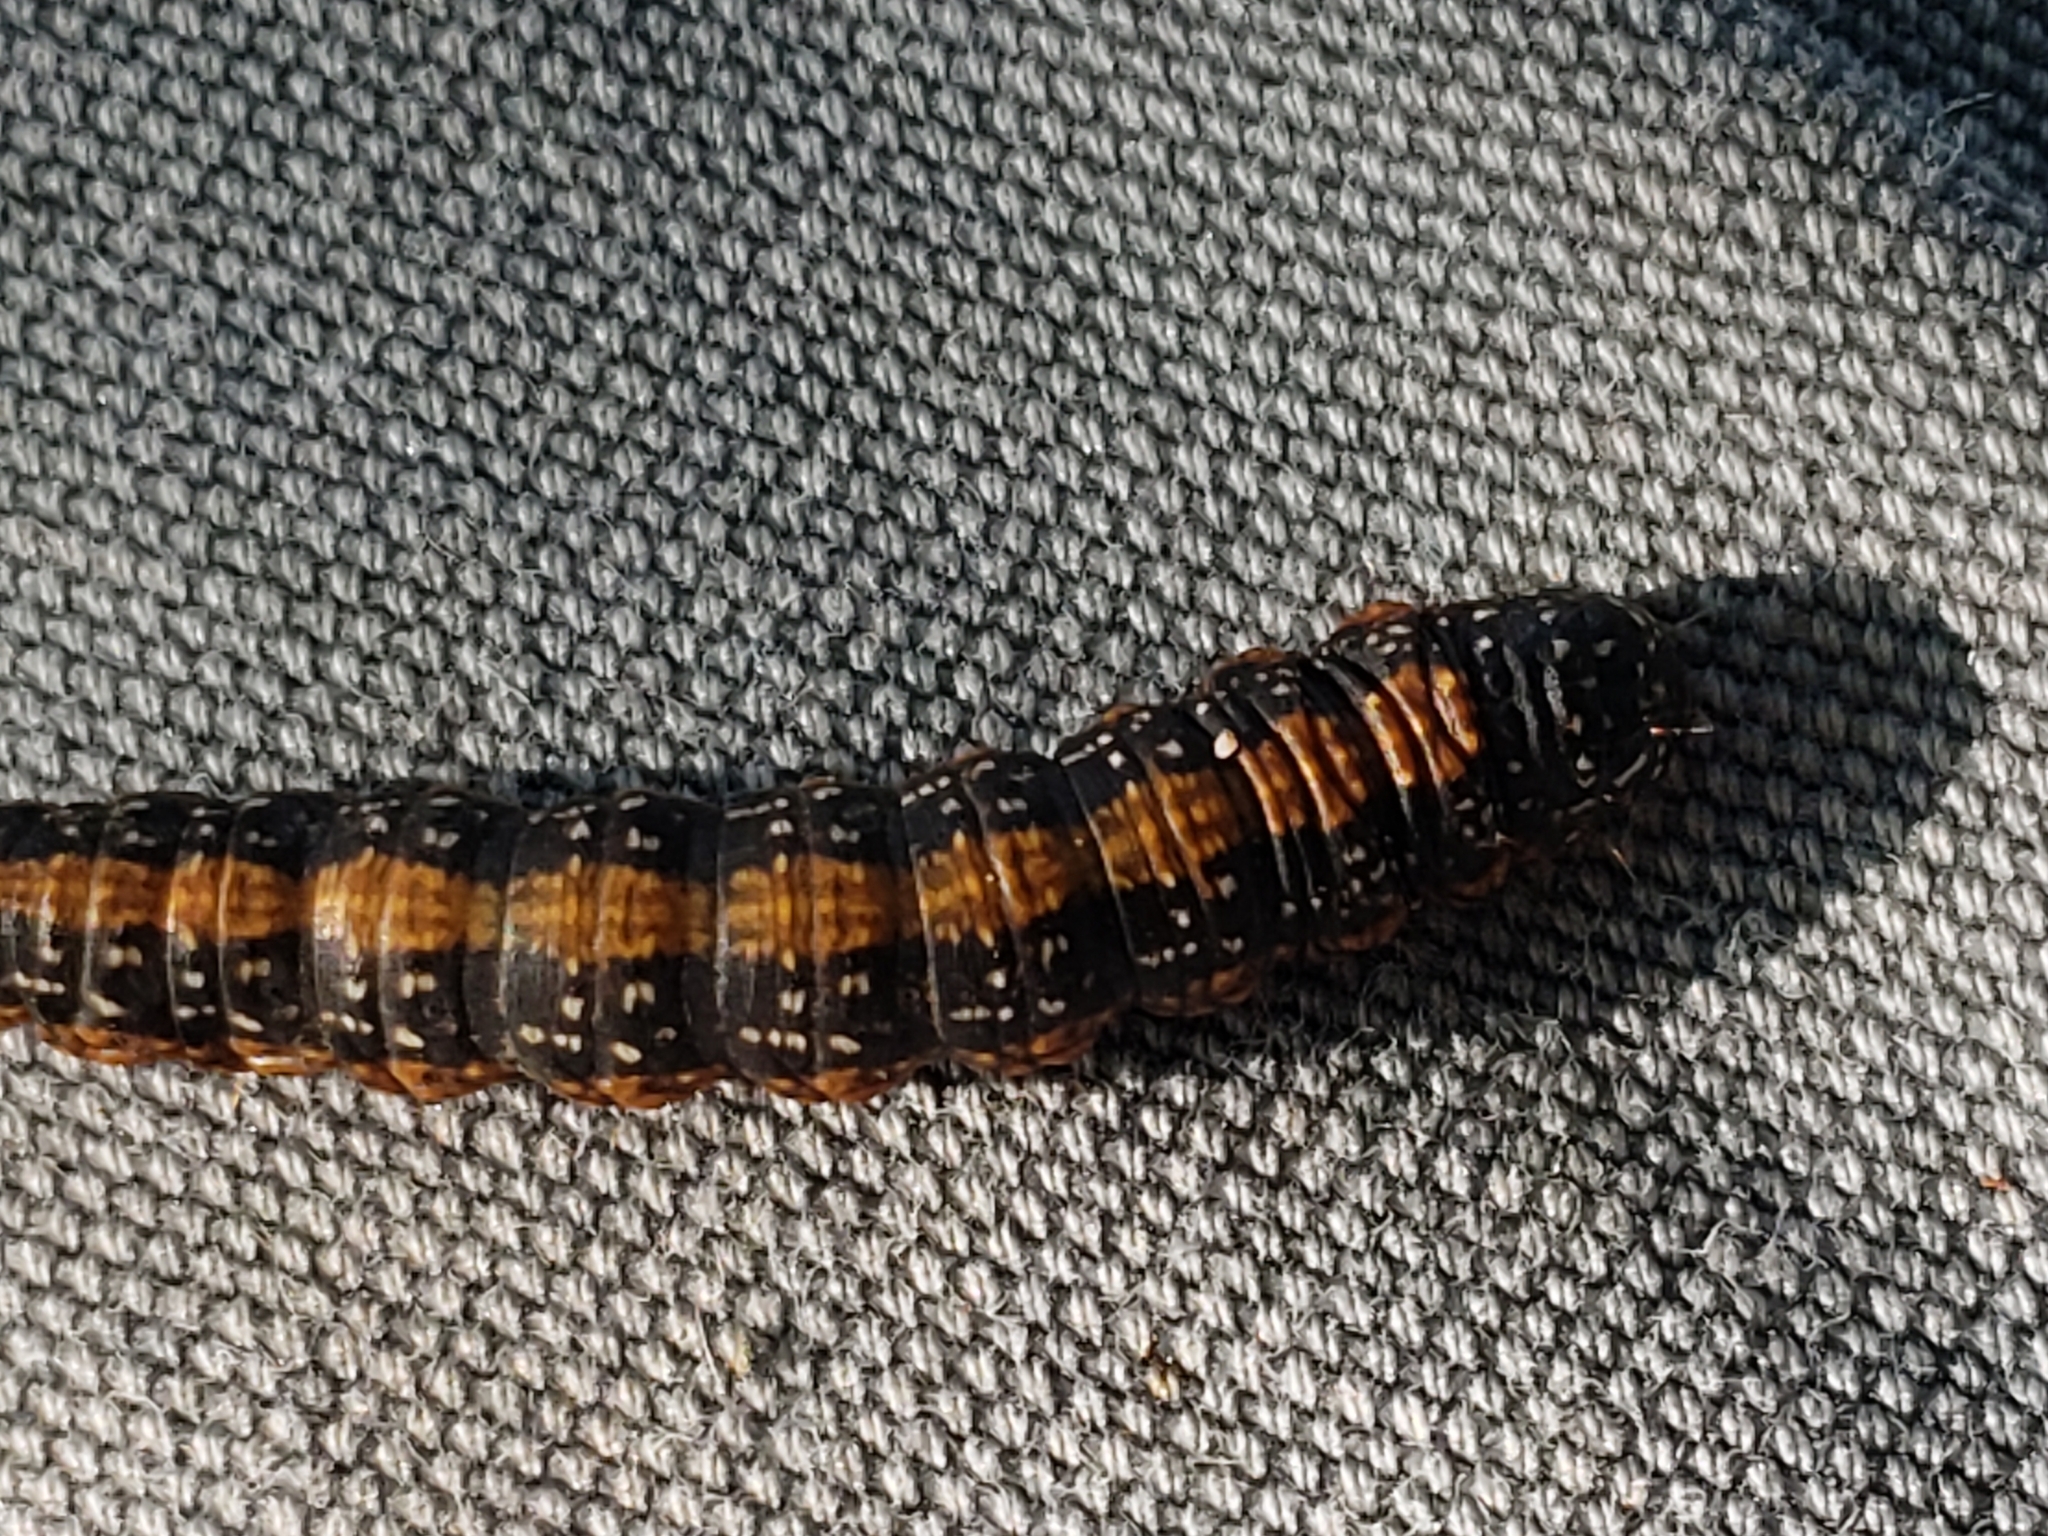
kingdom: Animalia
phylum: Arthropoda
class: Insecta
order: Lepidoptera
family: Pyralidae
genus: Omphalocera
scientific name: Omphalocera munroei
